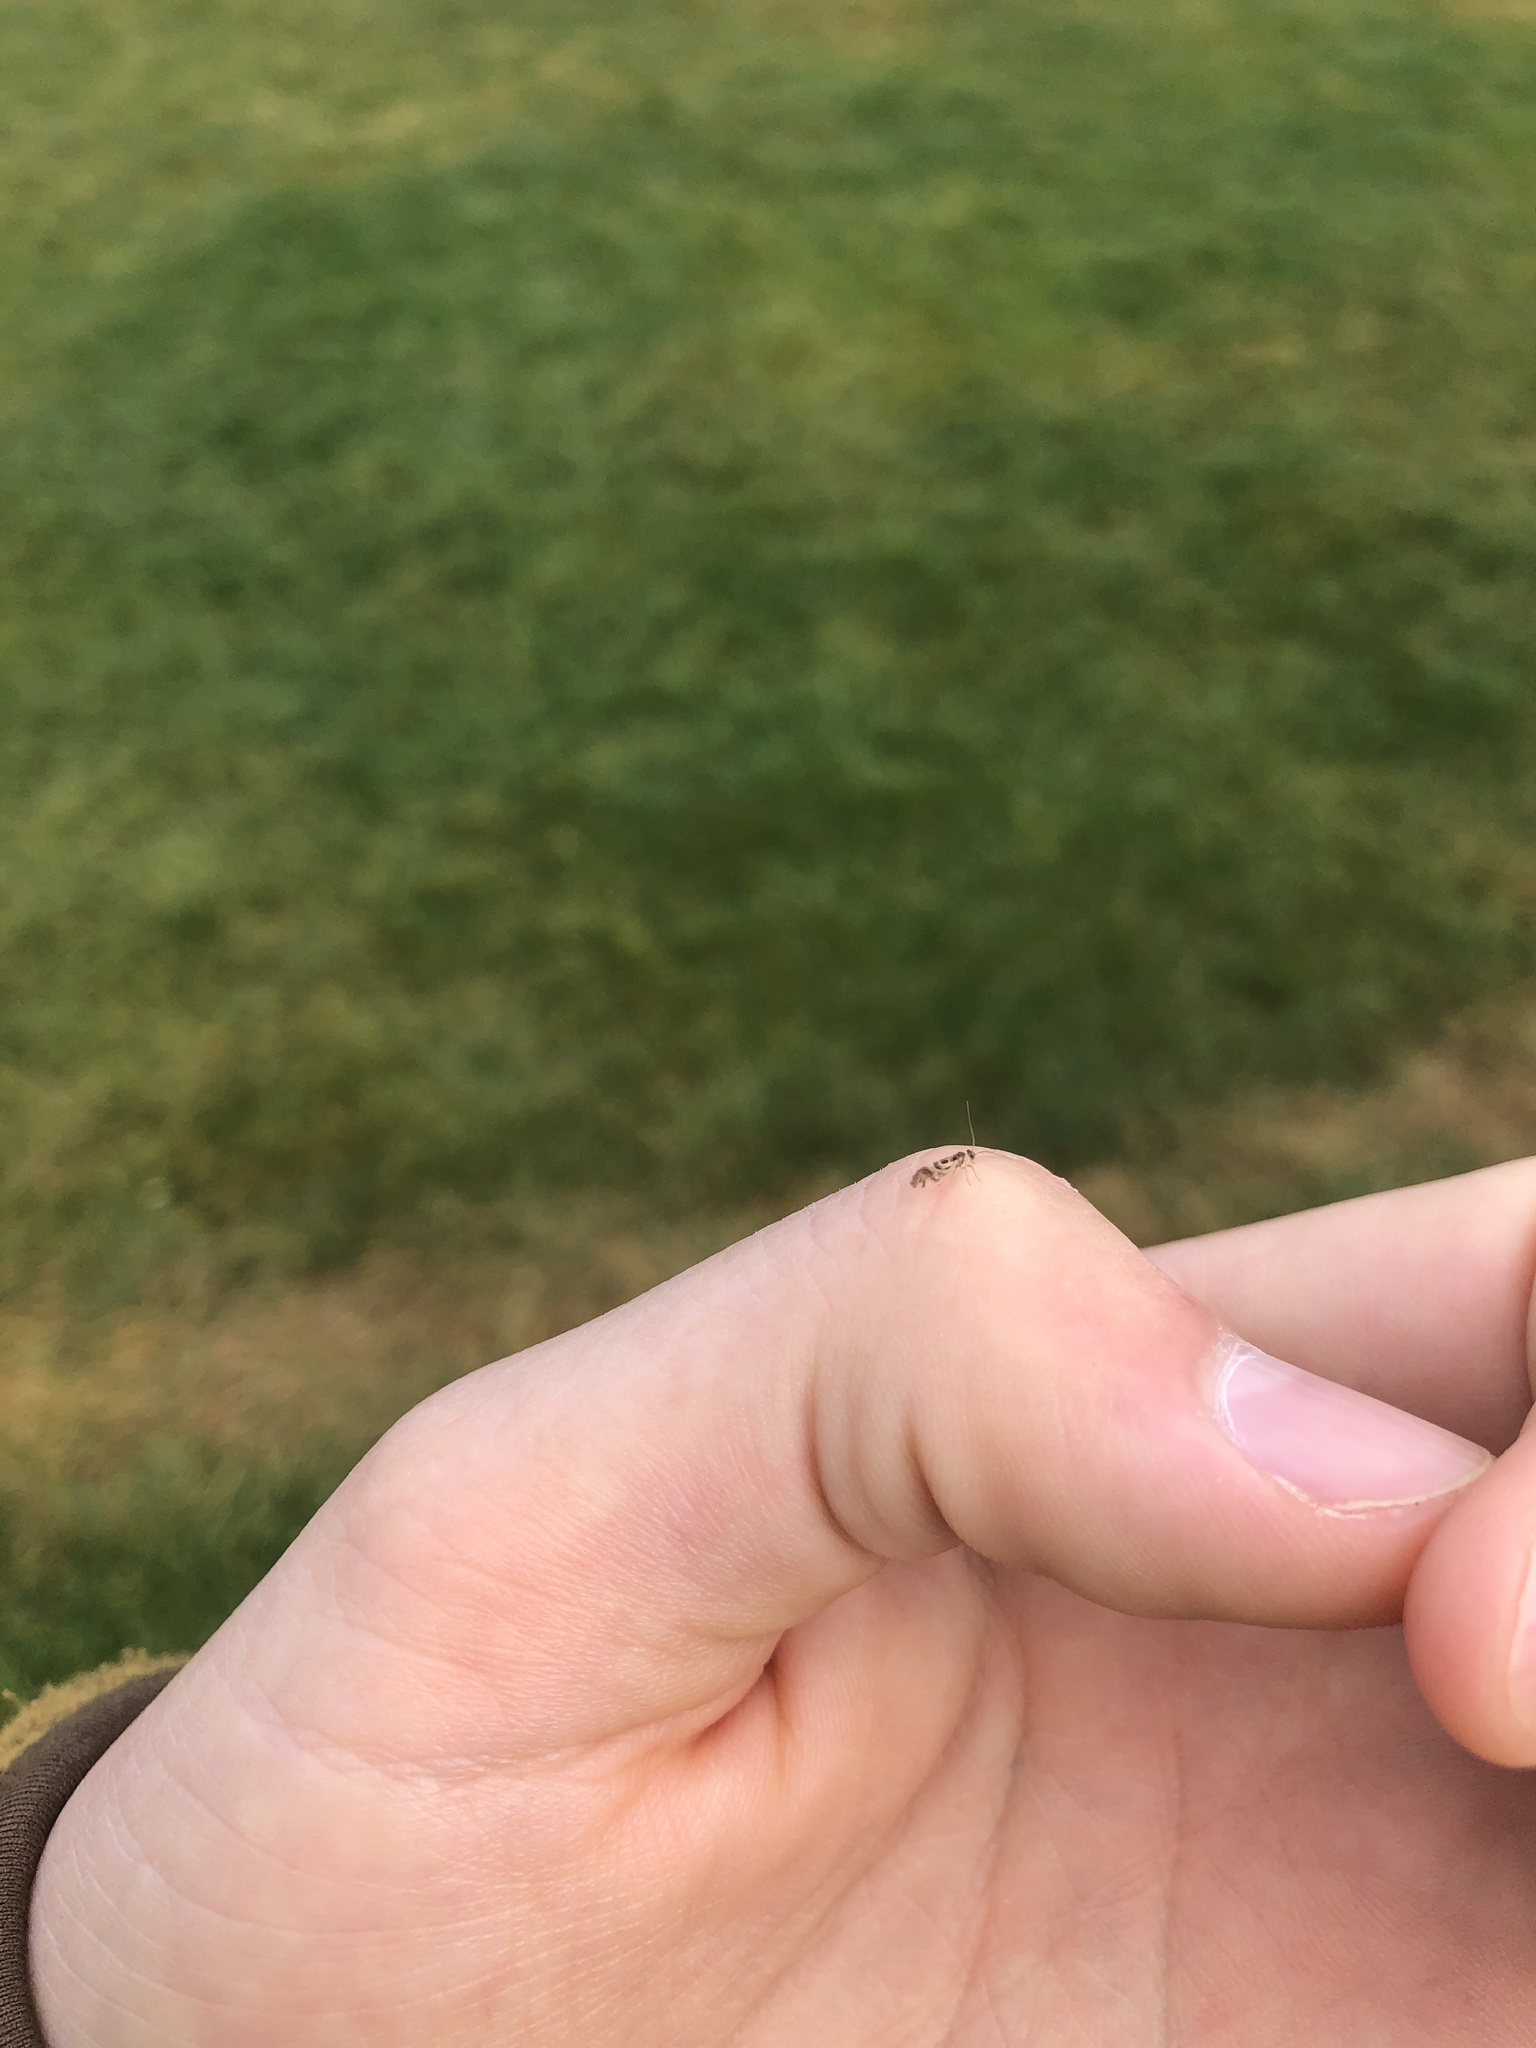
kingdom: Animalia
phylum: Arthropoda
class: Insecta
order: Psocodea
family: Stenopsocidae
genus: Graphopsocus
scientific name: Graphopsocus cruciatus
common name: Lizard bark louse
